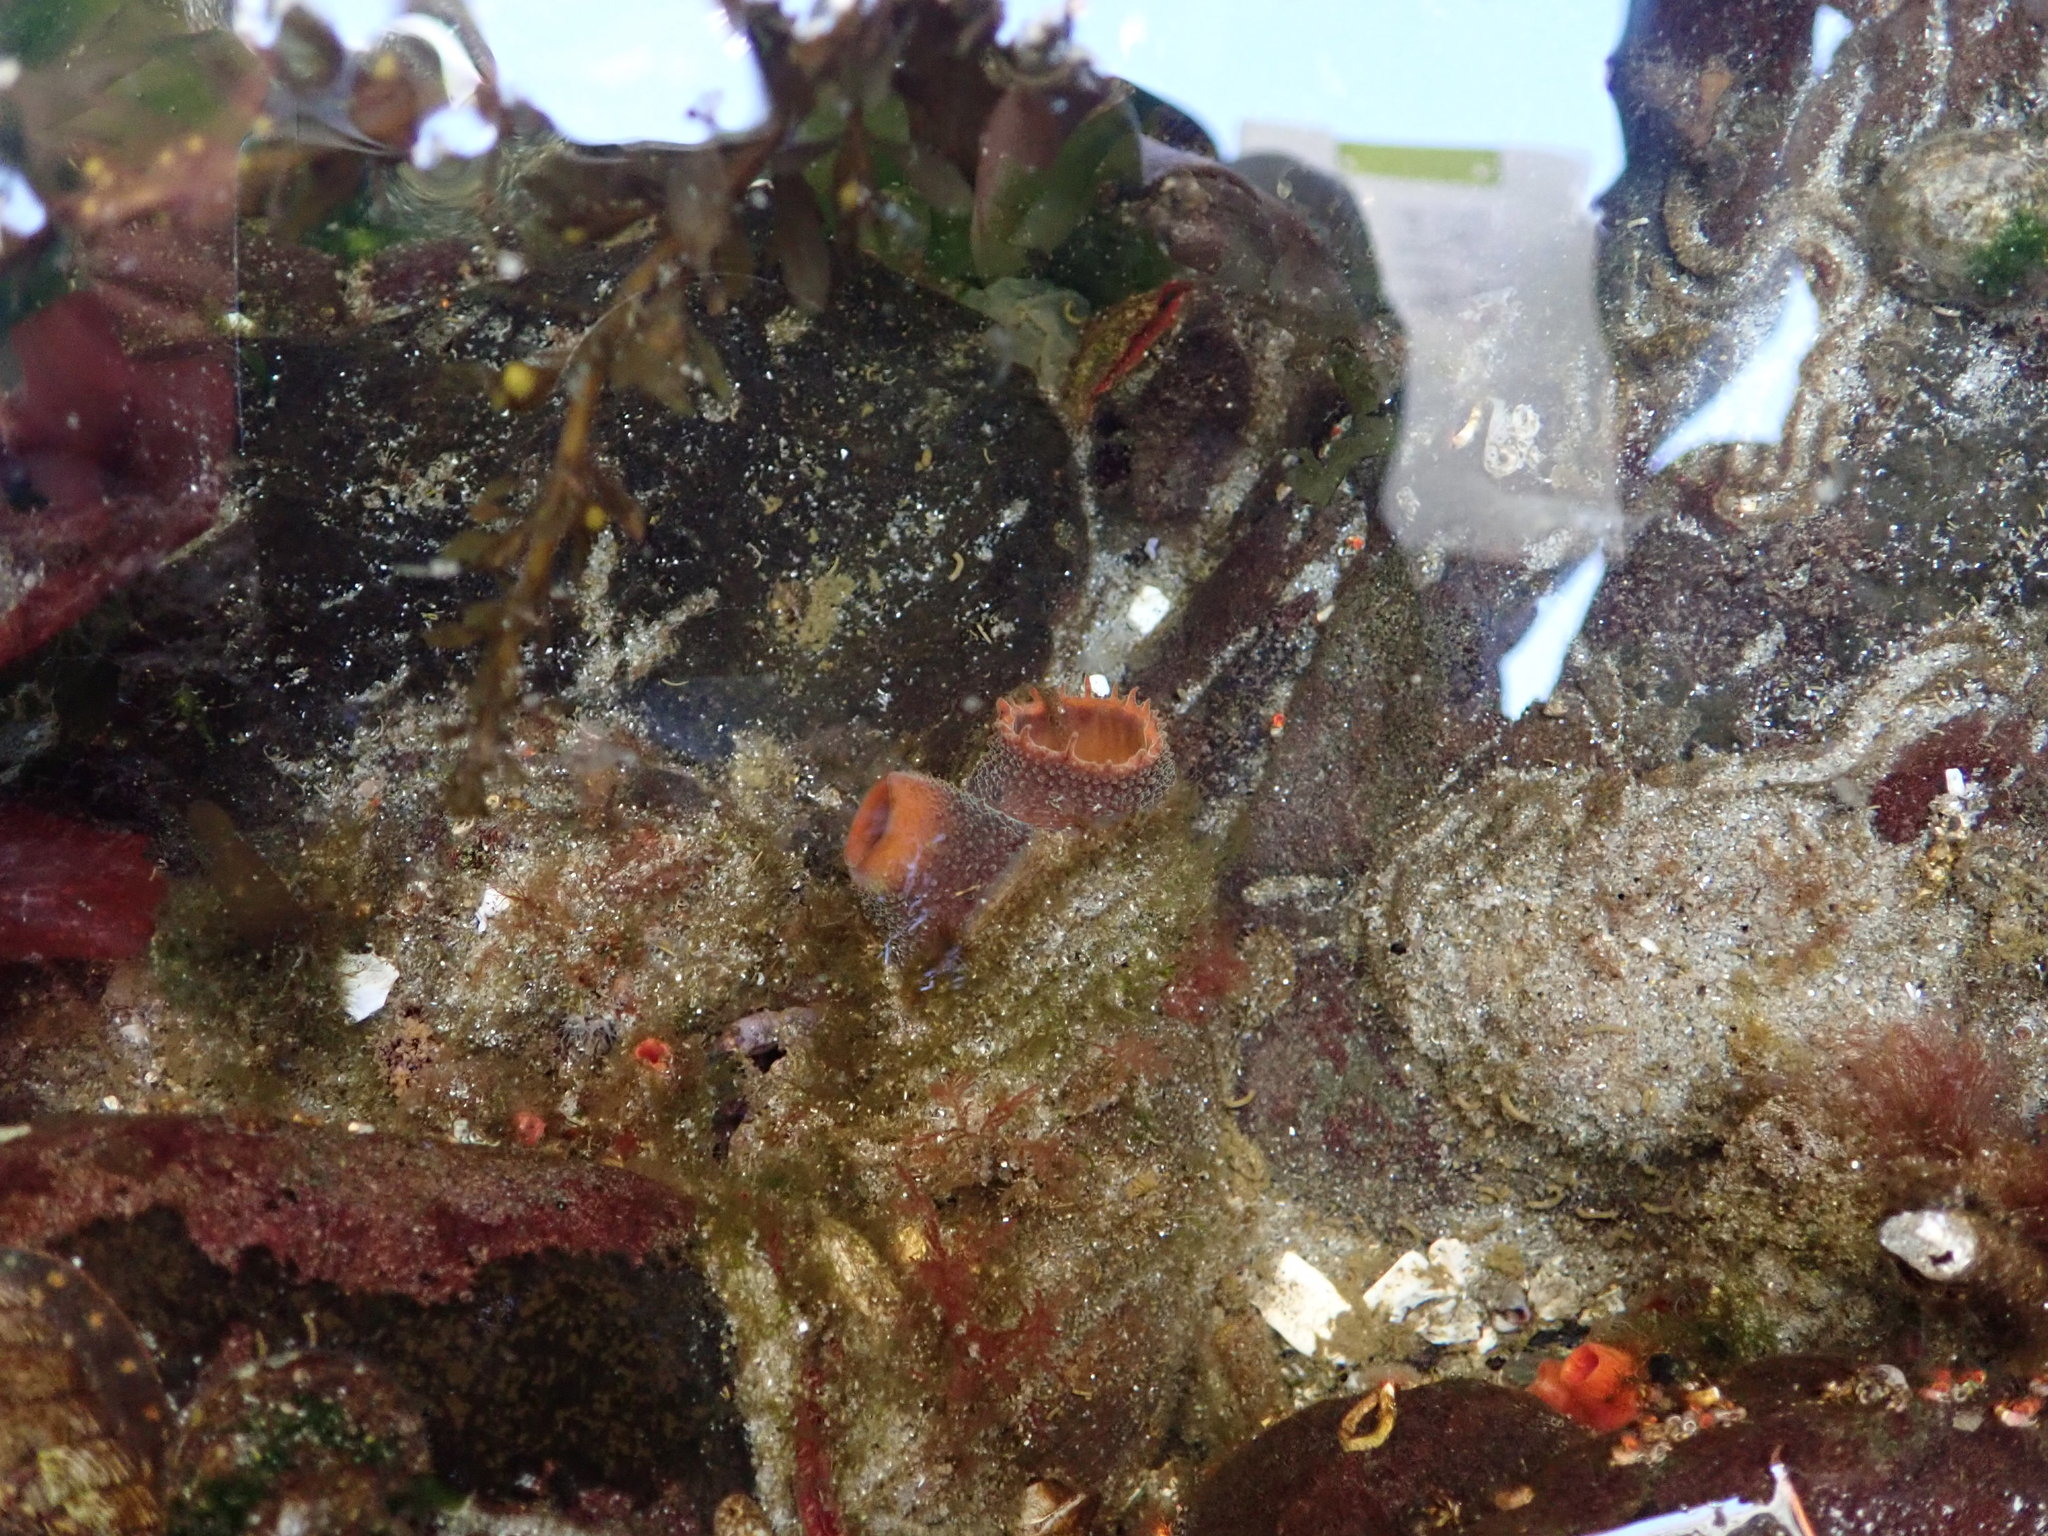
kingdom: Animalia
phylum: Mollusca
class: Bivalvia
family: Lyonsiidae
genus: Entodesma
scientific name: Entodesma navicula
